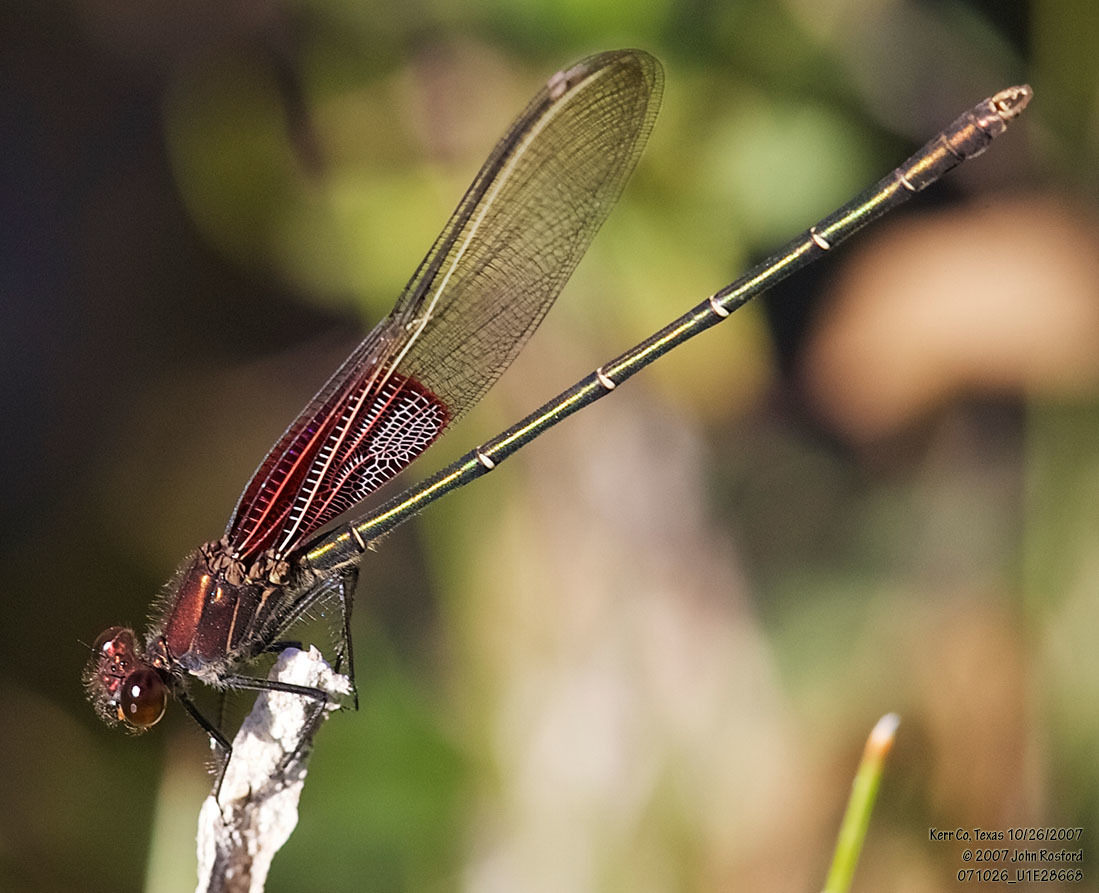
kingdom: Animalia
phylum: Arthropoda
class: Insecta
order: Odonata
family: Calopterygidae
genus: Hetaerina
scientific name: Hetaerina americana
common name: American rubyspot
